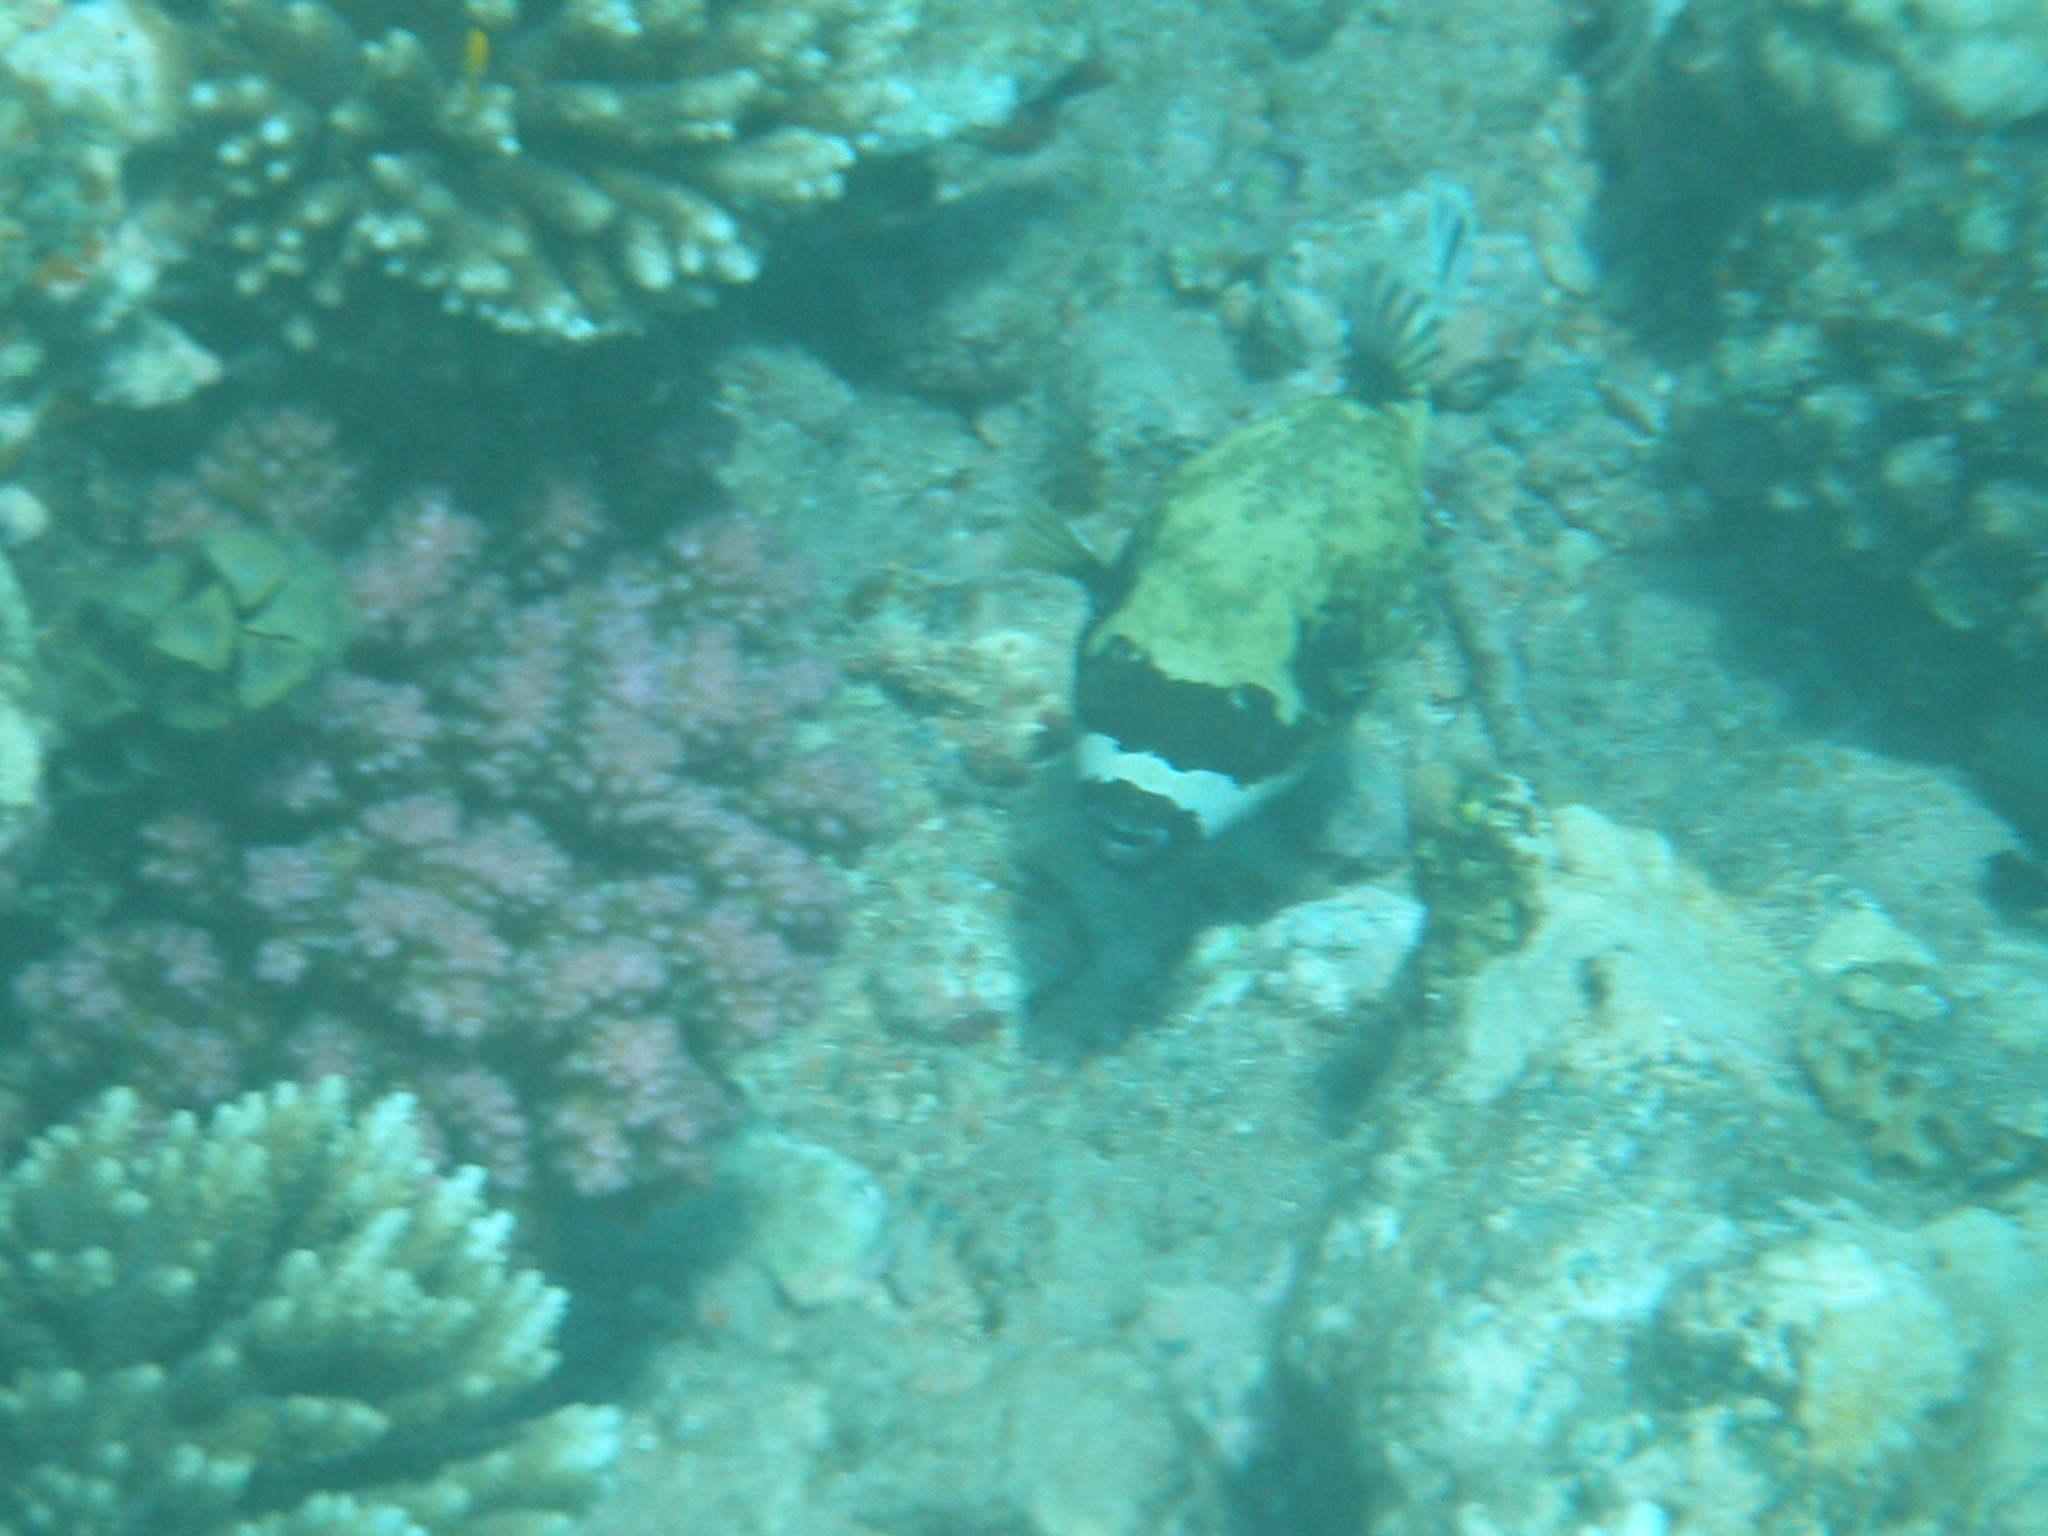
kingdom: Animalia
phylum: Chordata
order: Tetraodontiformes
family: Tetraodontidae
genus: Arothron
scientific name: Arothron diadematus
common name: Masked puffer
